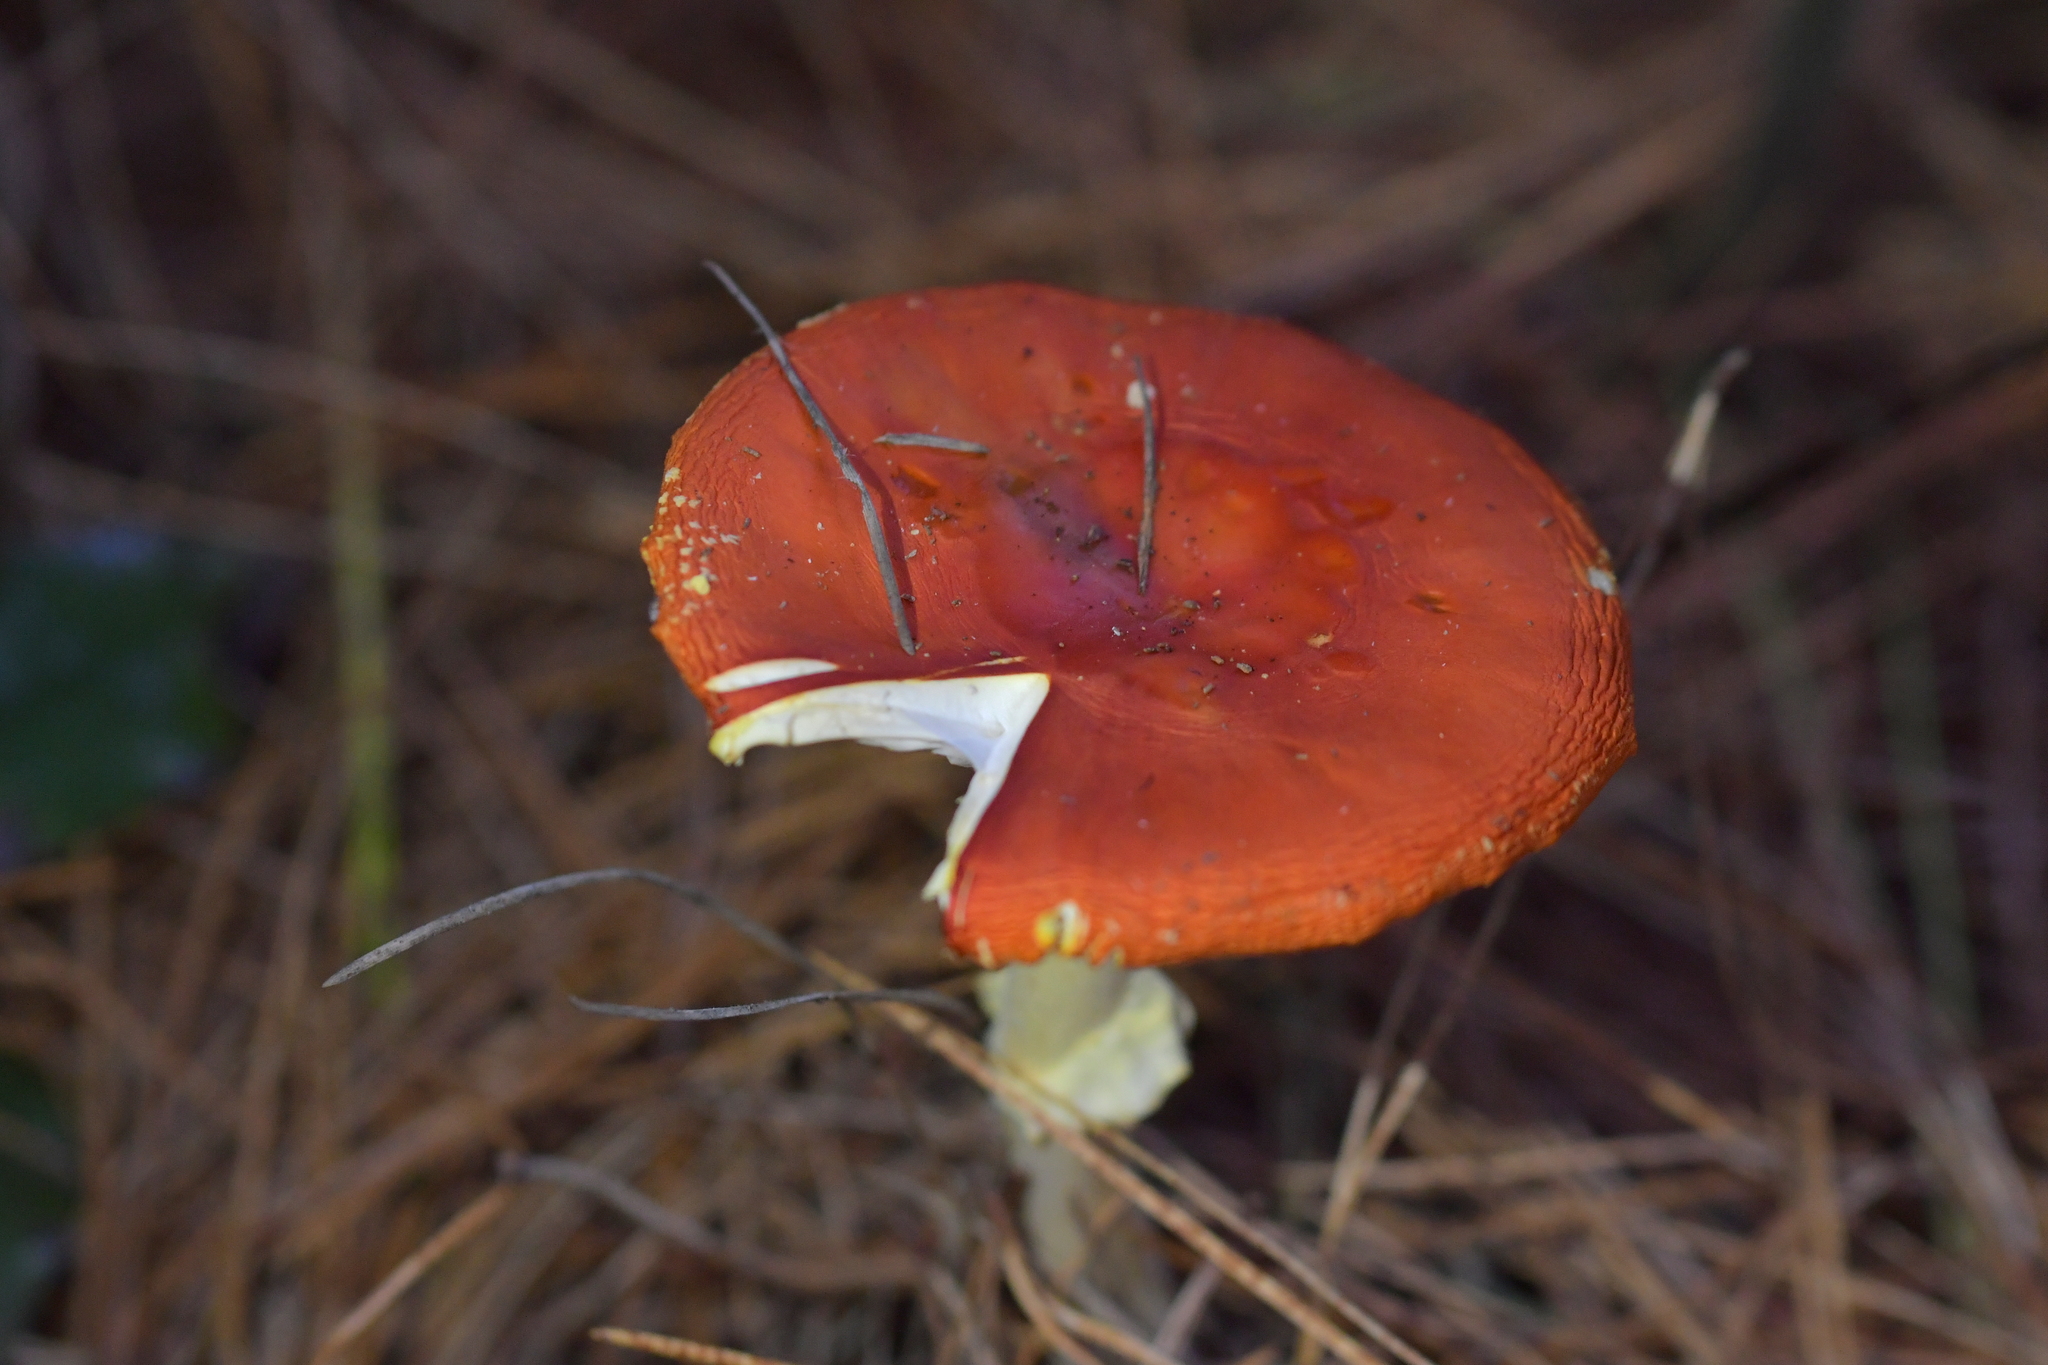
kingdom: Fungi
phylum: Basidiomycota
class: Agaricomycetes
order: Agaricales
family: Amanitaceae
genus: Amanita
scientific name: Amanita muscaria
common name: Fly agaric
